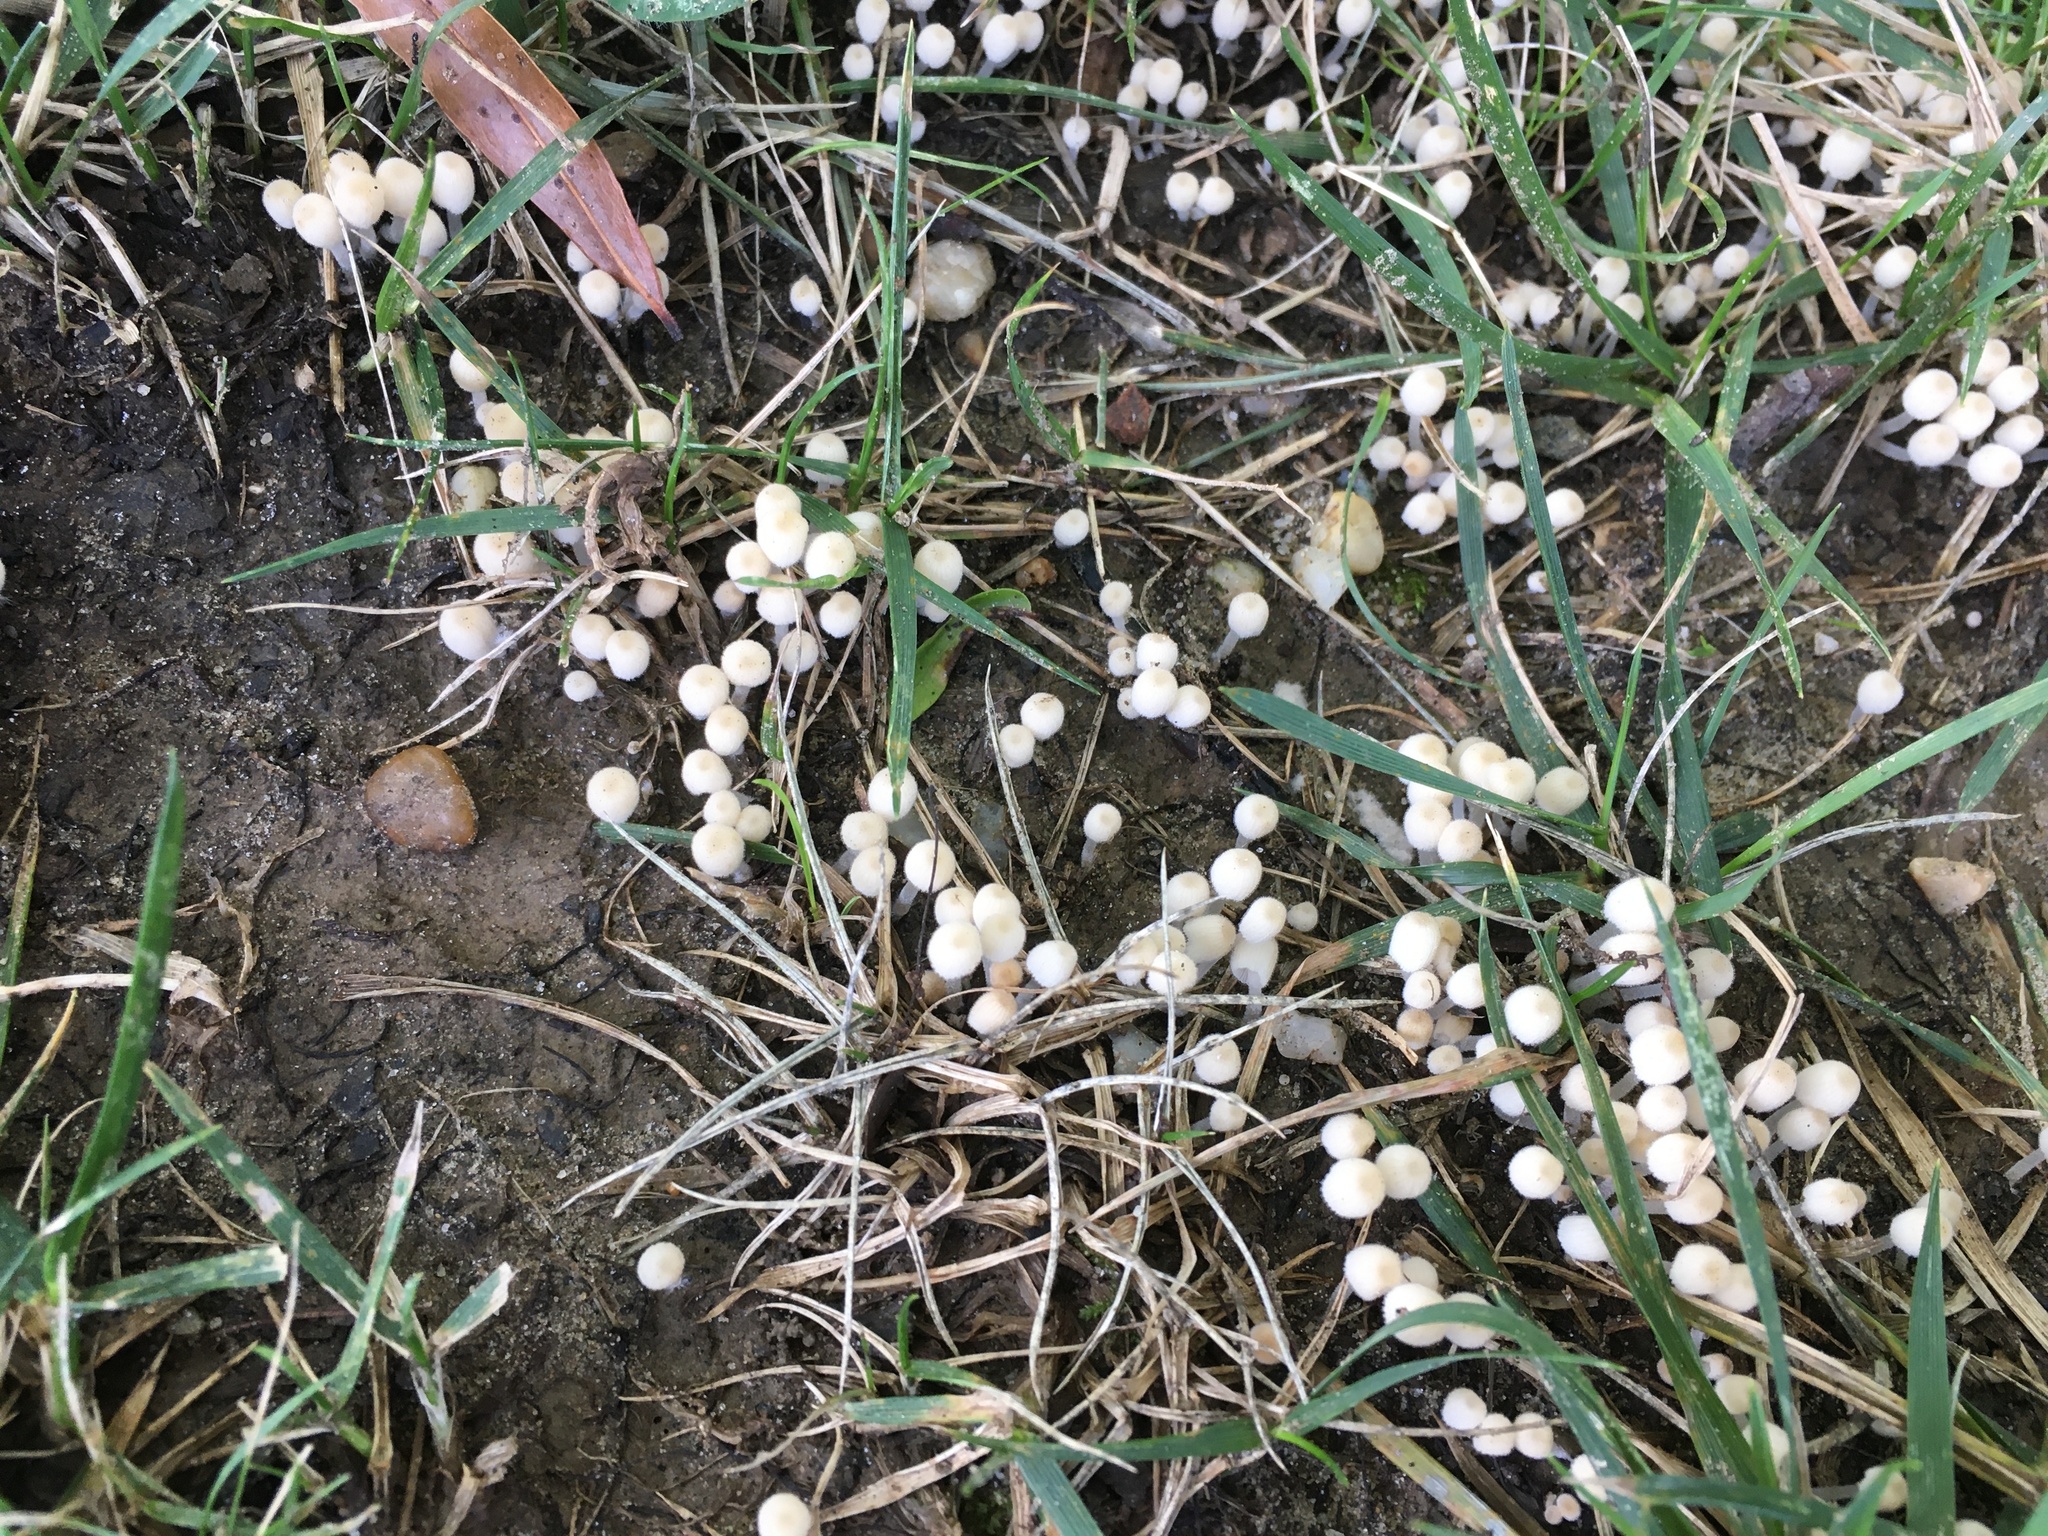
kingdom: Fungi
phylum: Basidiomycota
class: Agaricomycetes
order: Agaricales
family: Psathyrellaceae
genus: Coprinellus
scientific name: Coprinellus disseminatus
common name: Fairies' bonnets
